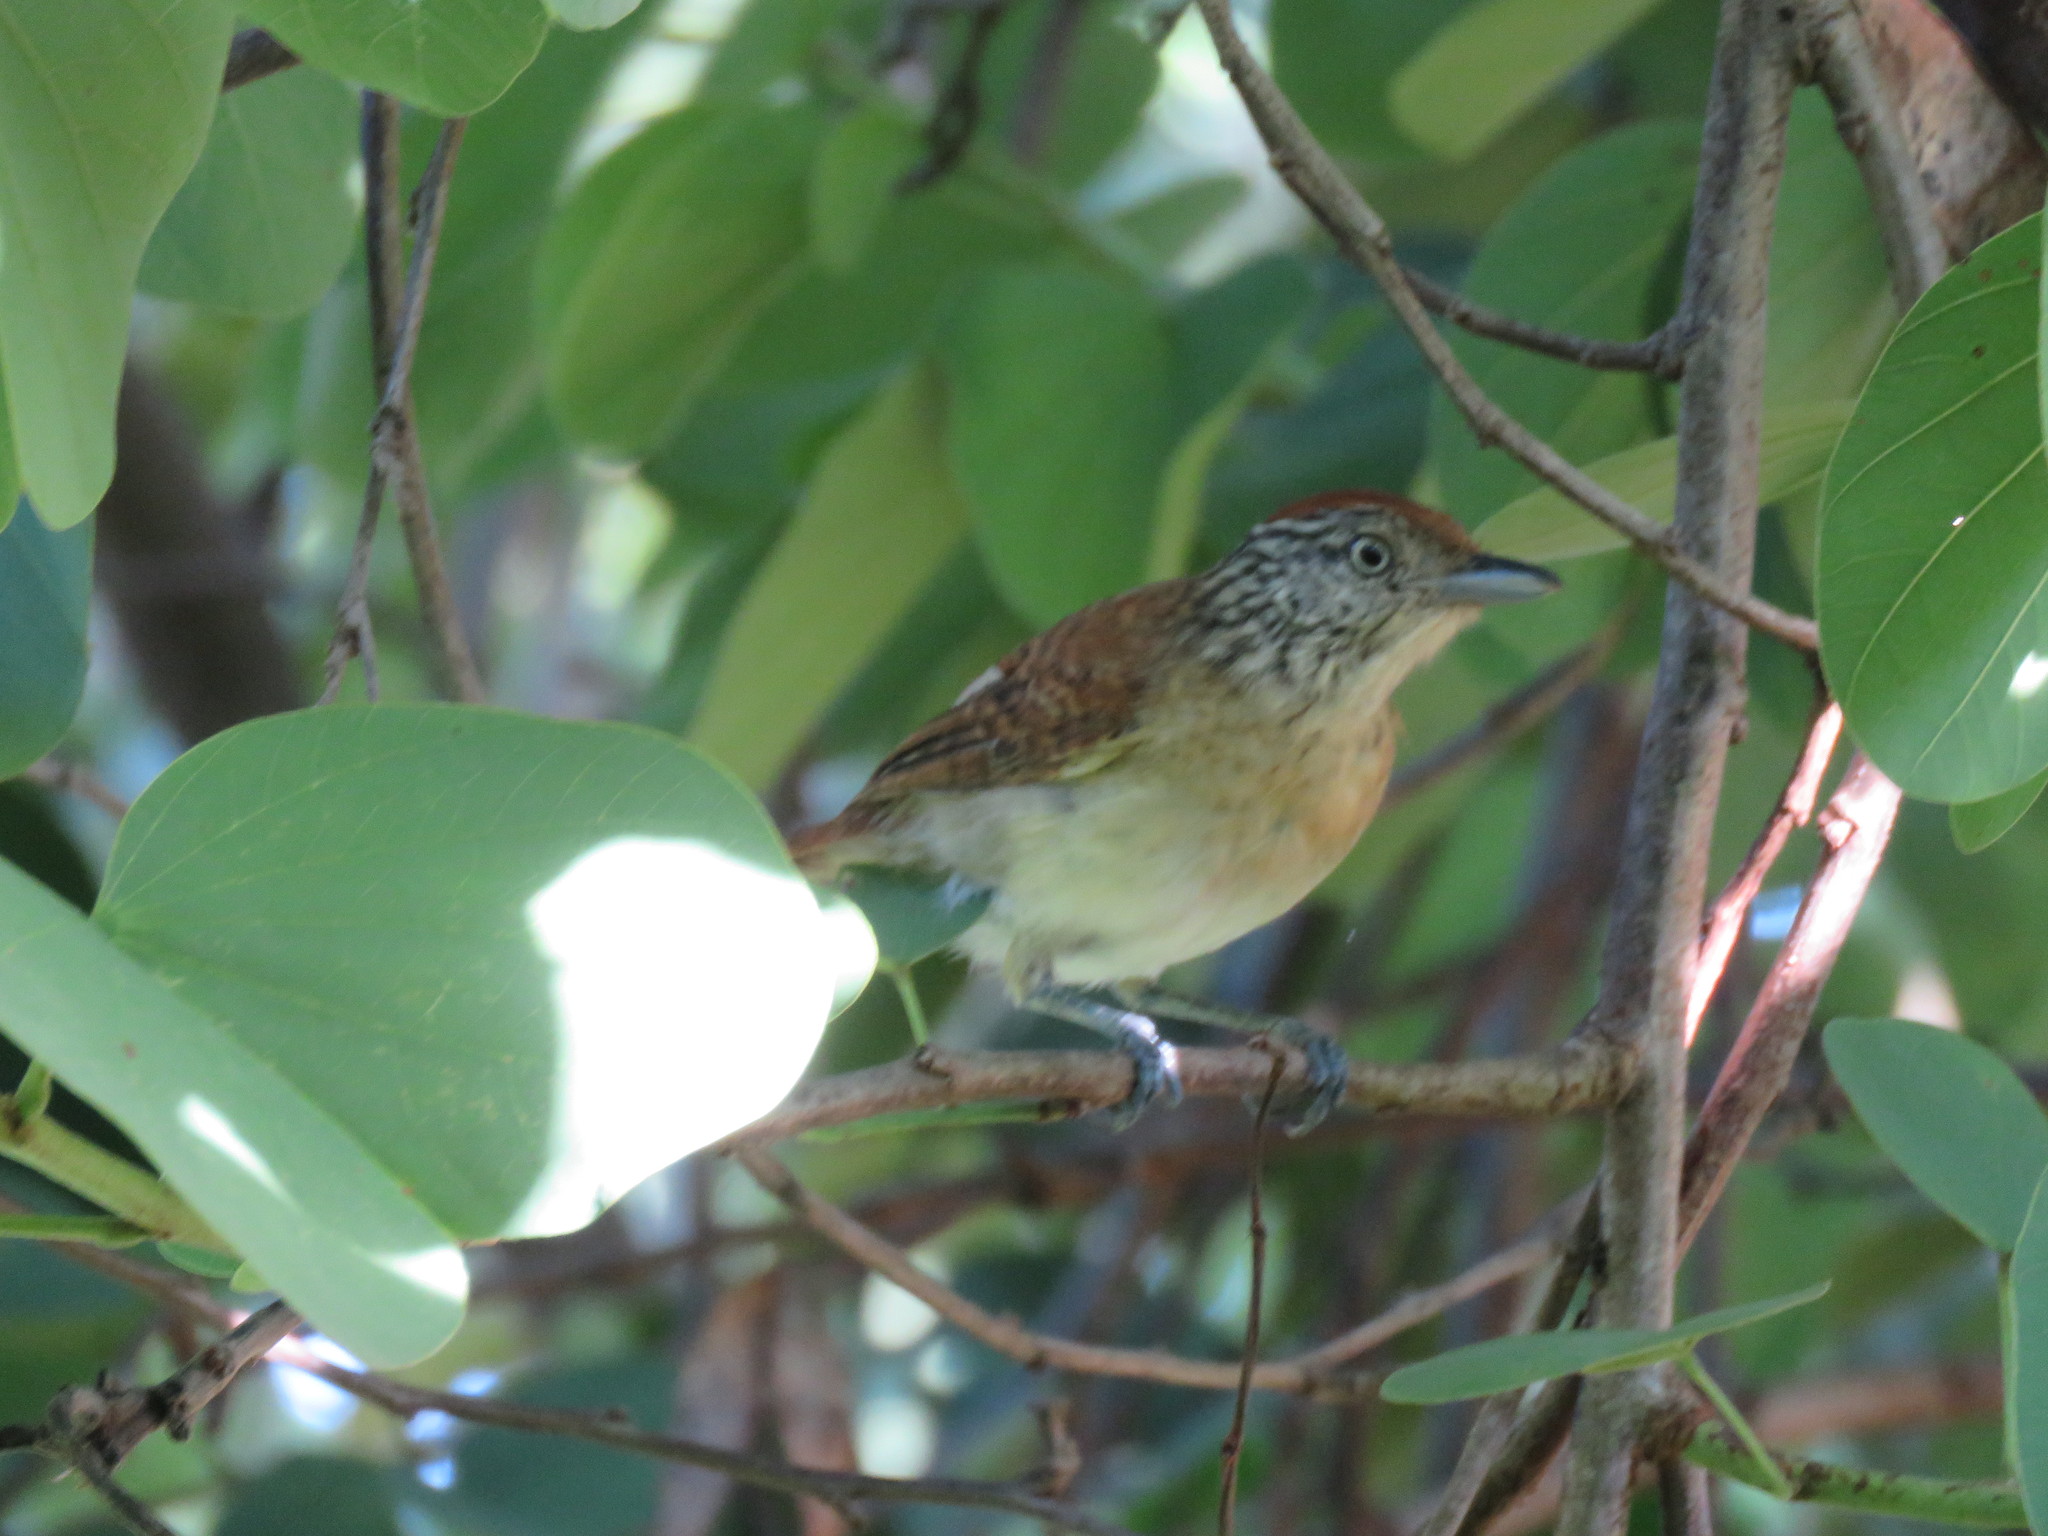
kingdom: Animalia
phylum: Chordata
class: Aves
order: Passeriformes
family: Thamnophilidae
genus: Thamnophilus
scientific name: Thamnophilus doliatus
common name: Barred antshrike
